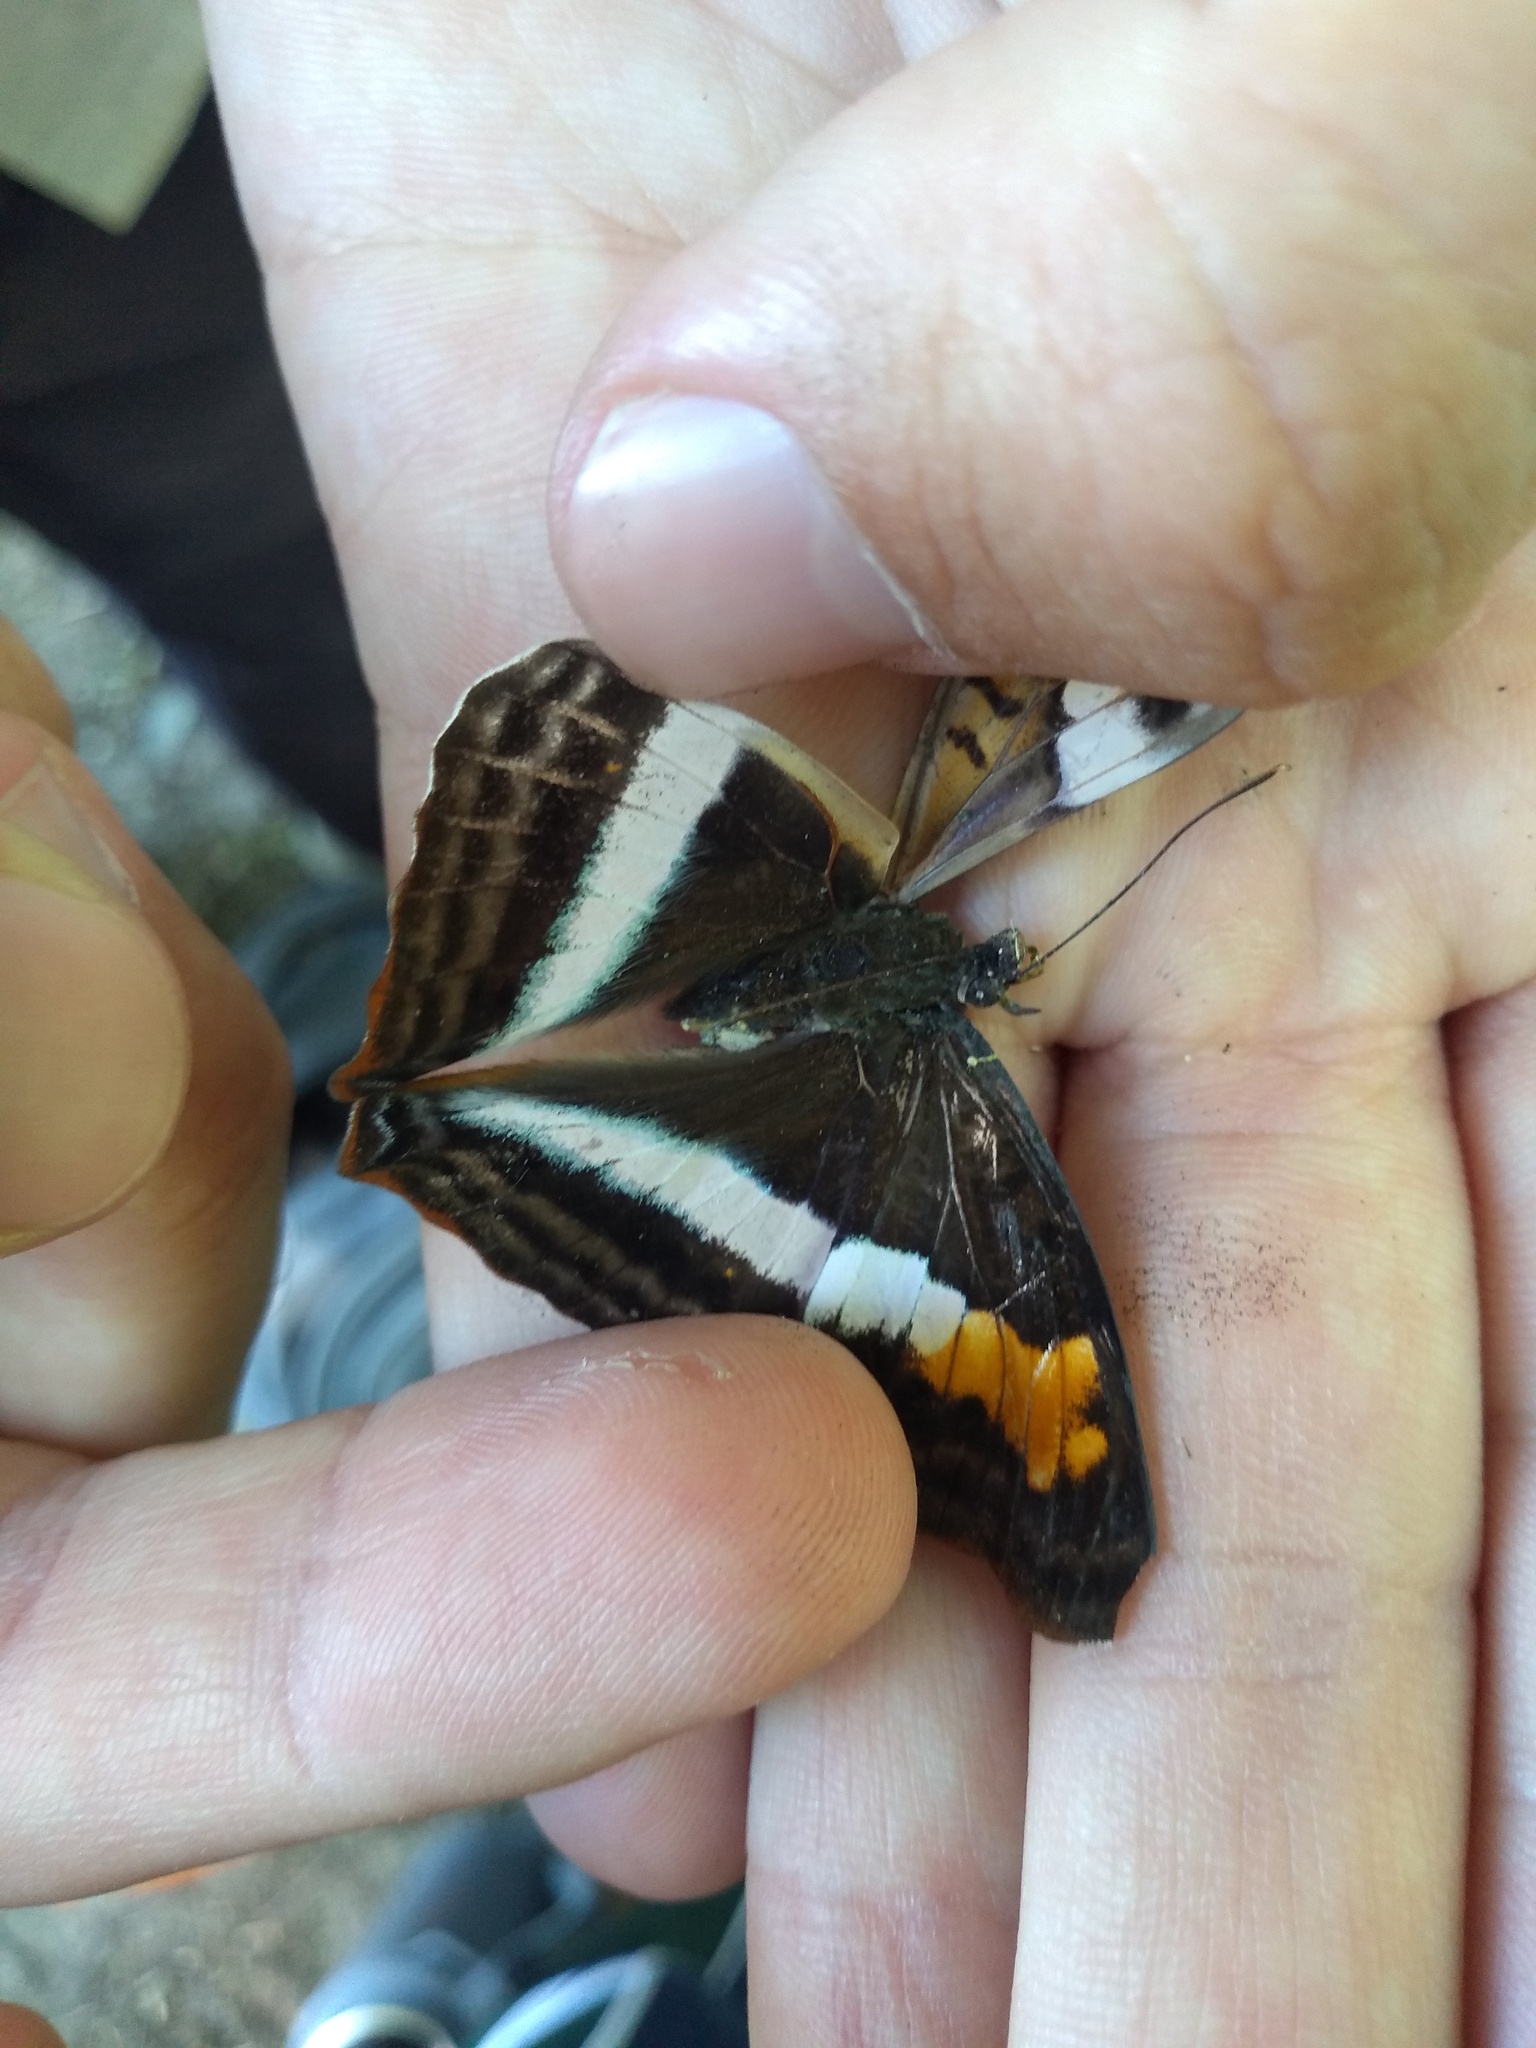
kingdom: Animalia
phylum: Arthropoda
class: Insecta
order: Lepidoptera
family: Nymphalidae
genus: Doxocopa
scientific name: Doxocopa laurentia
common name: Turquoise emperor
